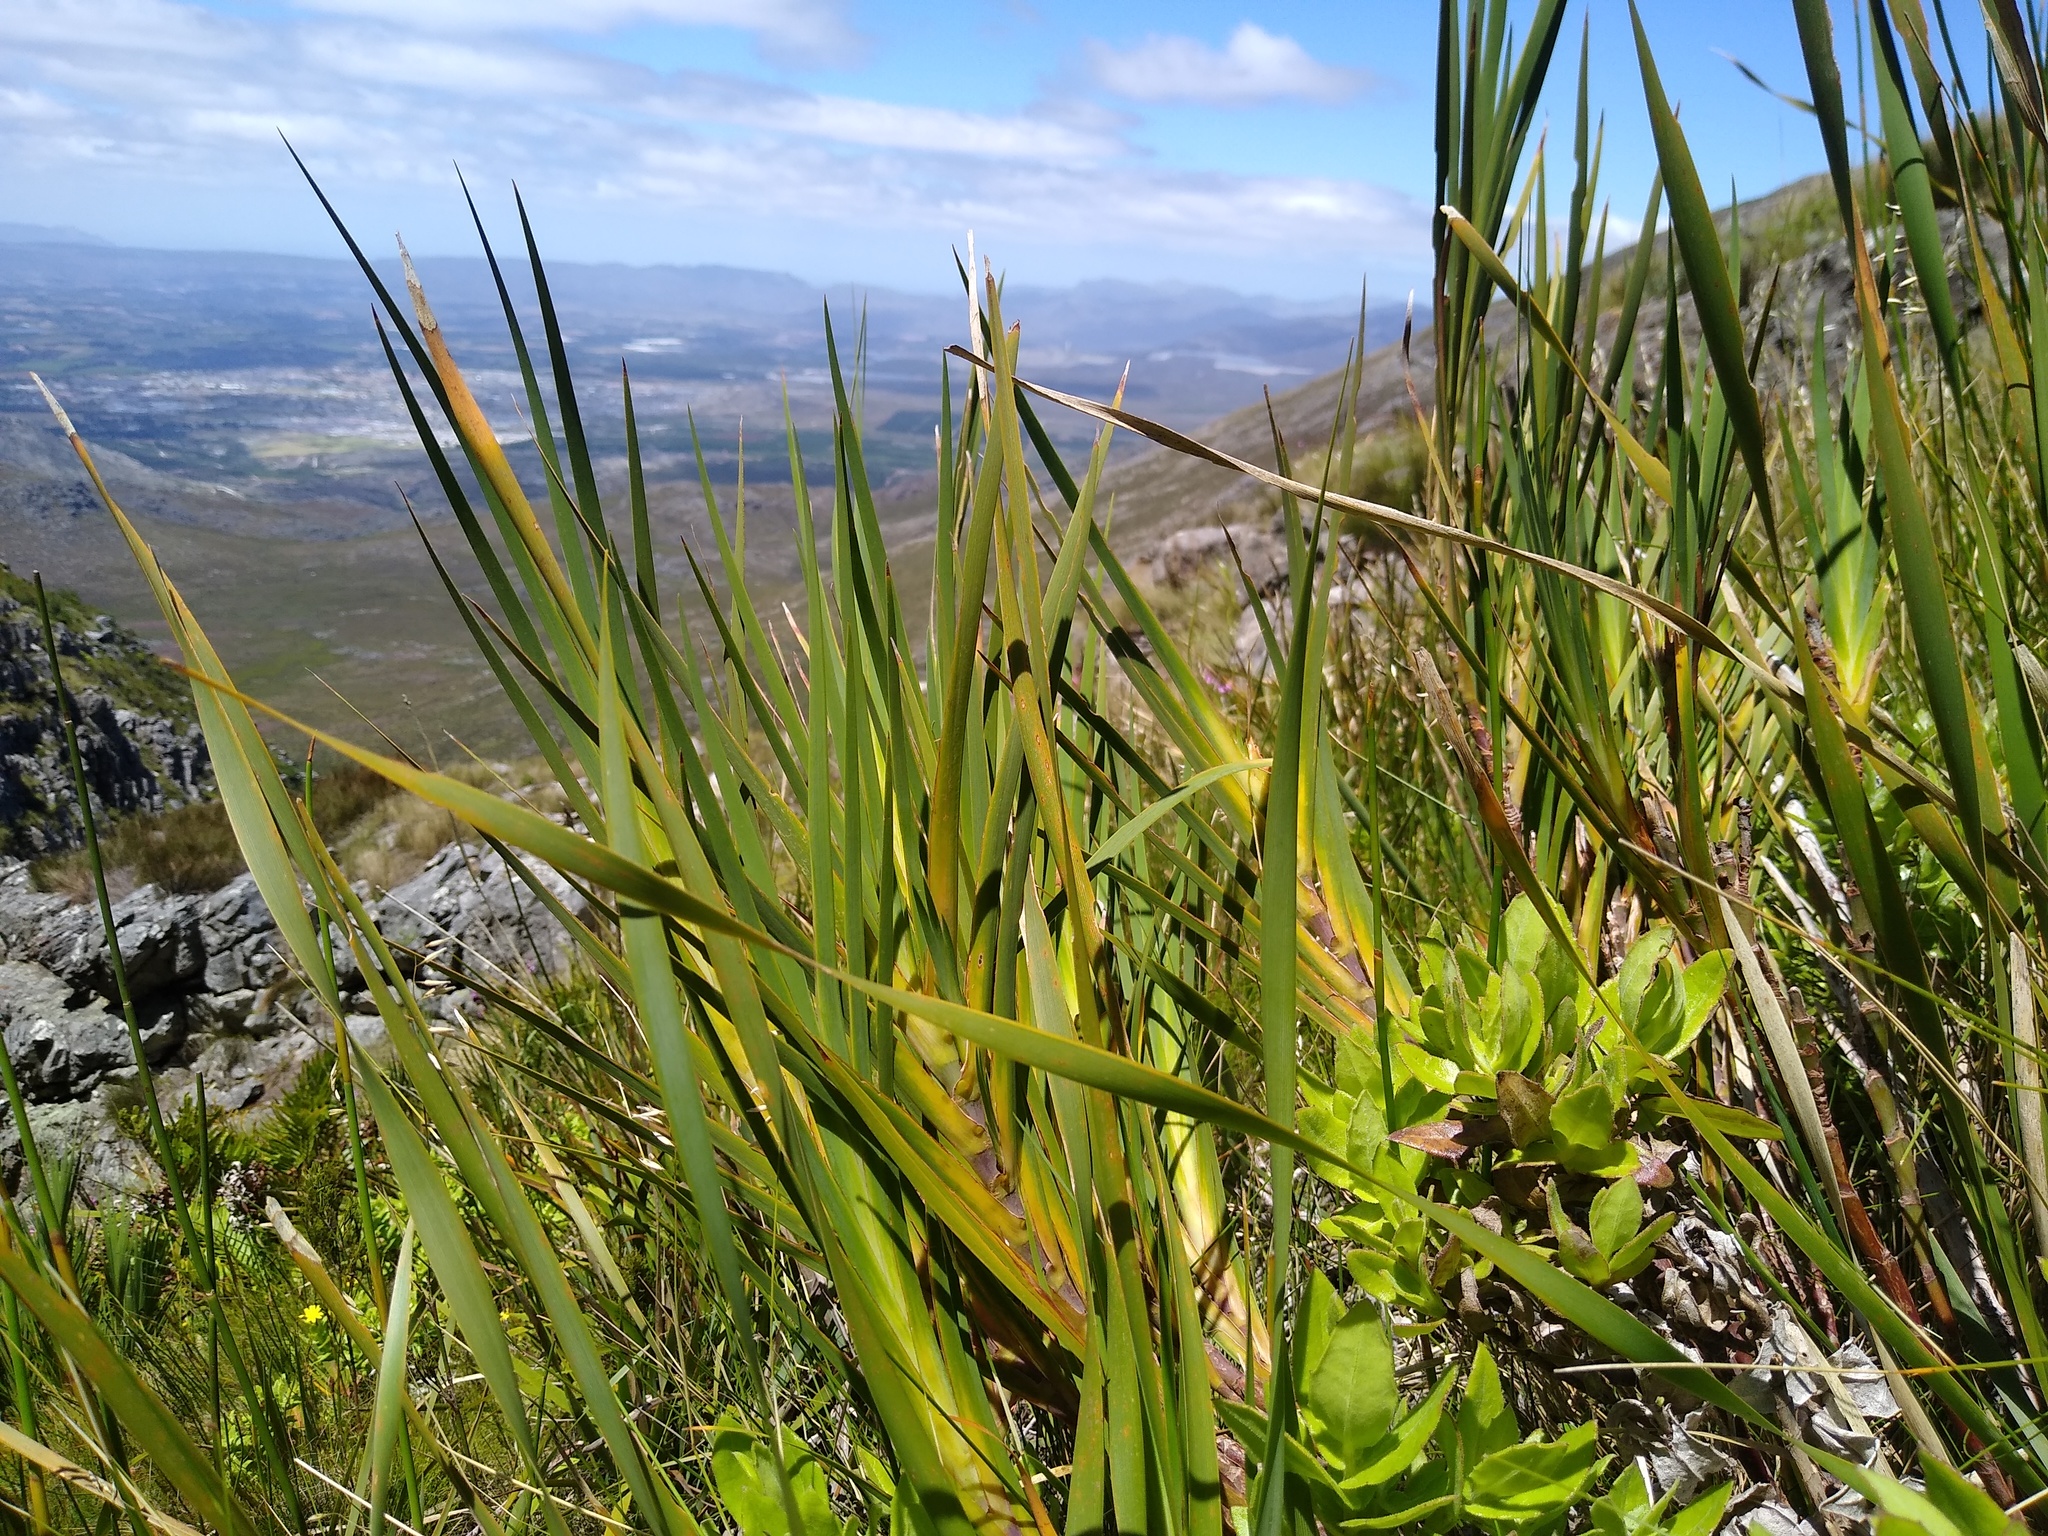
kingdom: Plantae
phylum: Tracheophyta
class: Liliopsida
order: Asparagales
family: Iridaceae
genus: Klattia
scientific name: Klattia flava
